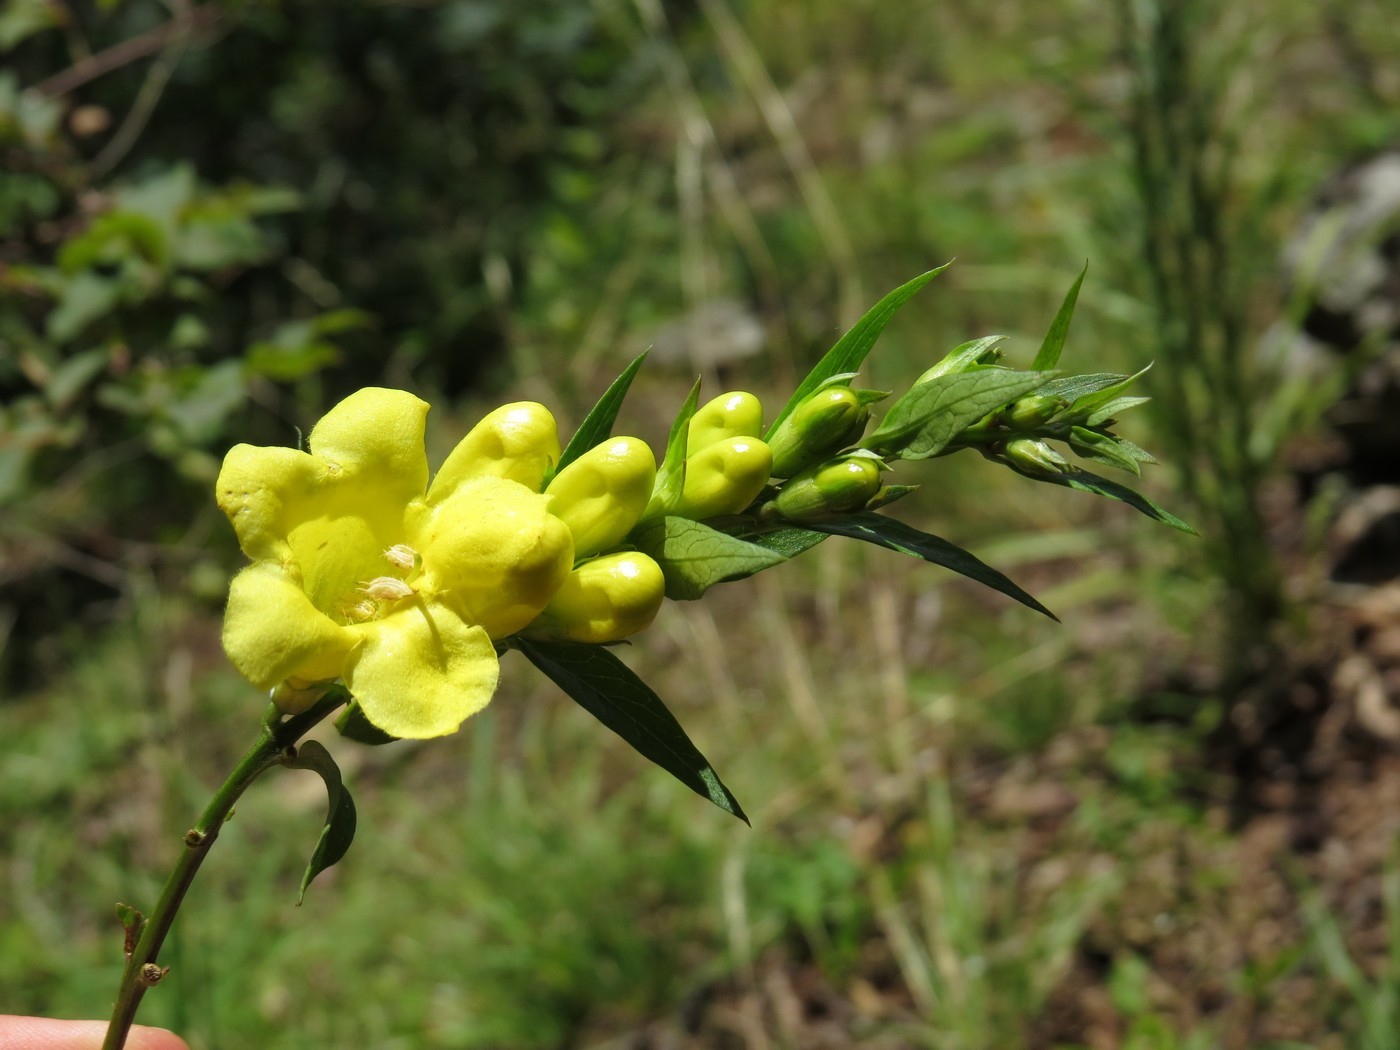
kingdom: Plantae
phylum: Tracheophyta
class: Magnoliopsida
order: Lamiales
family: Orobanchaceae
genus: Aureolaria
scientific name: Aureolaria levigata
